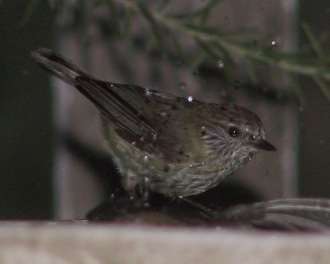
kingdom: Animalia
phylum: Chordata
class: Aves
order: Passeriformes
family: Acanthizidae
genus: Acanthiza
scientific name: Acanthiza lineata
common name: Striated thornbill
